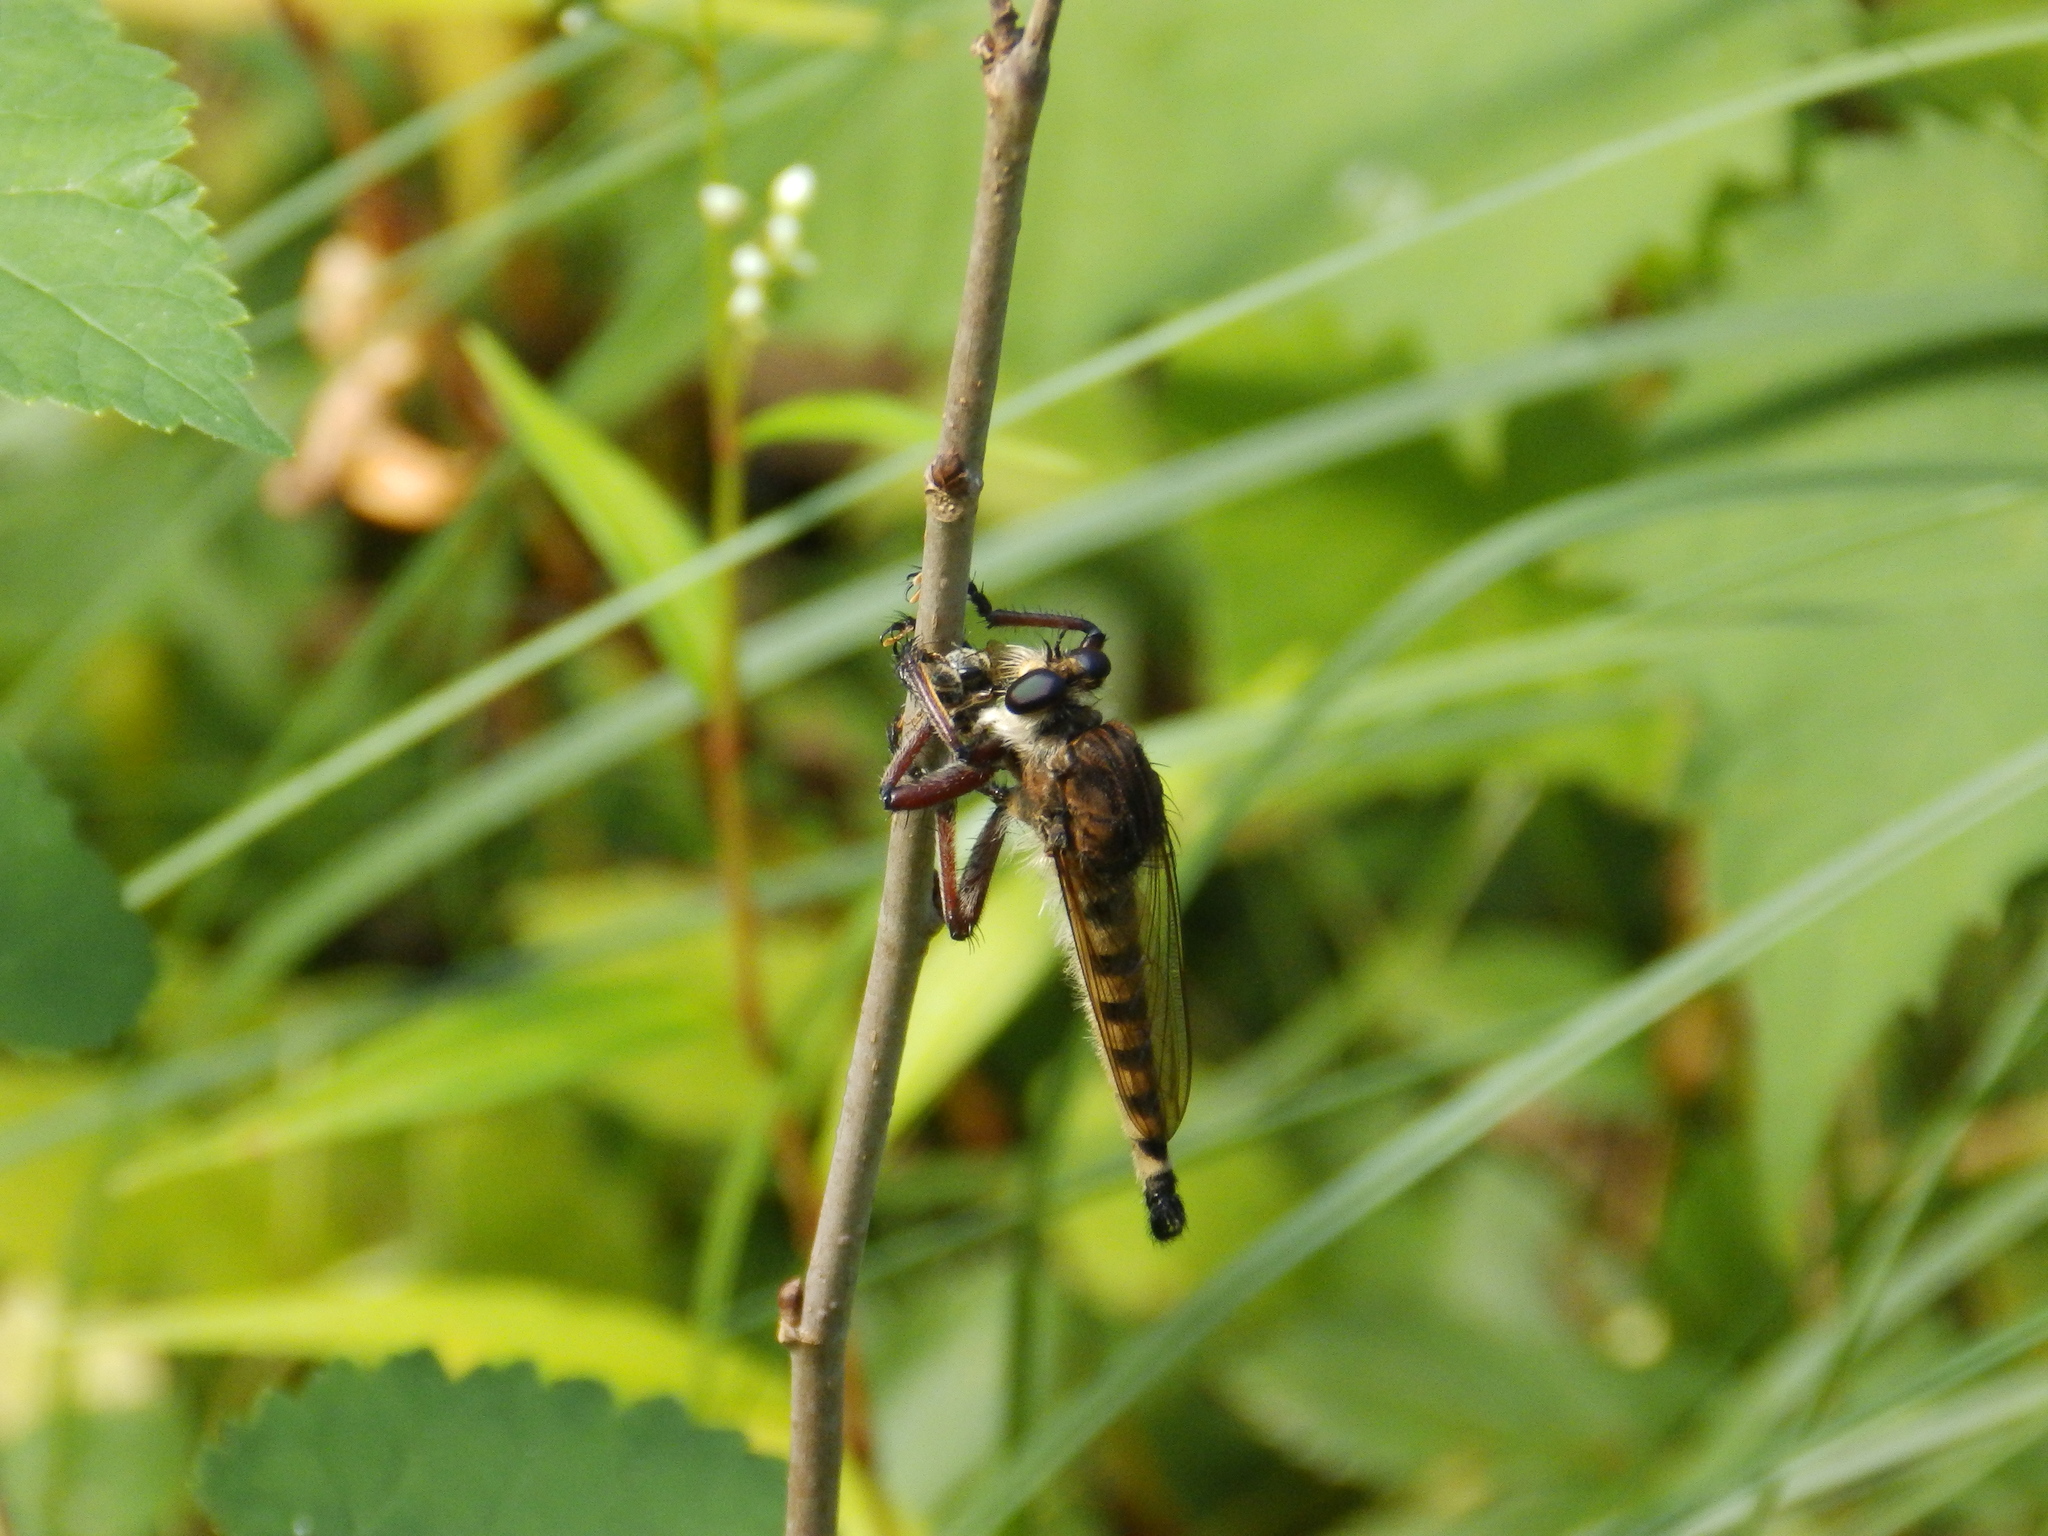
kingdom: Animalia
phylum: Arthropoda
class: Insecta
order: Diptera
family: Asilidae
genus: Promachus
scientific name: Promachus hinei
